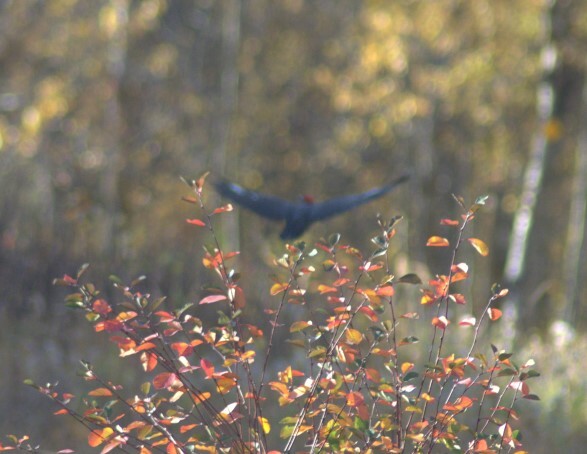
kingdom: Animalia
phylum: Chordata
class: Aves
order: Piciformes
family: Picidae
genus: Dryocopus
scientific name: Dryocopus pileatus
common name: Pileated woodpecker
